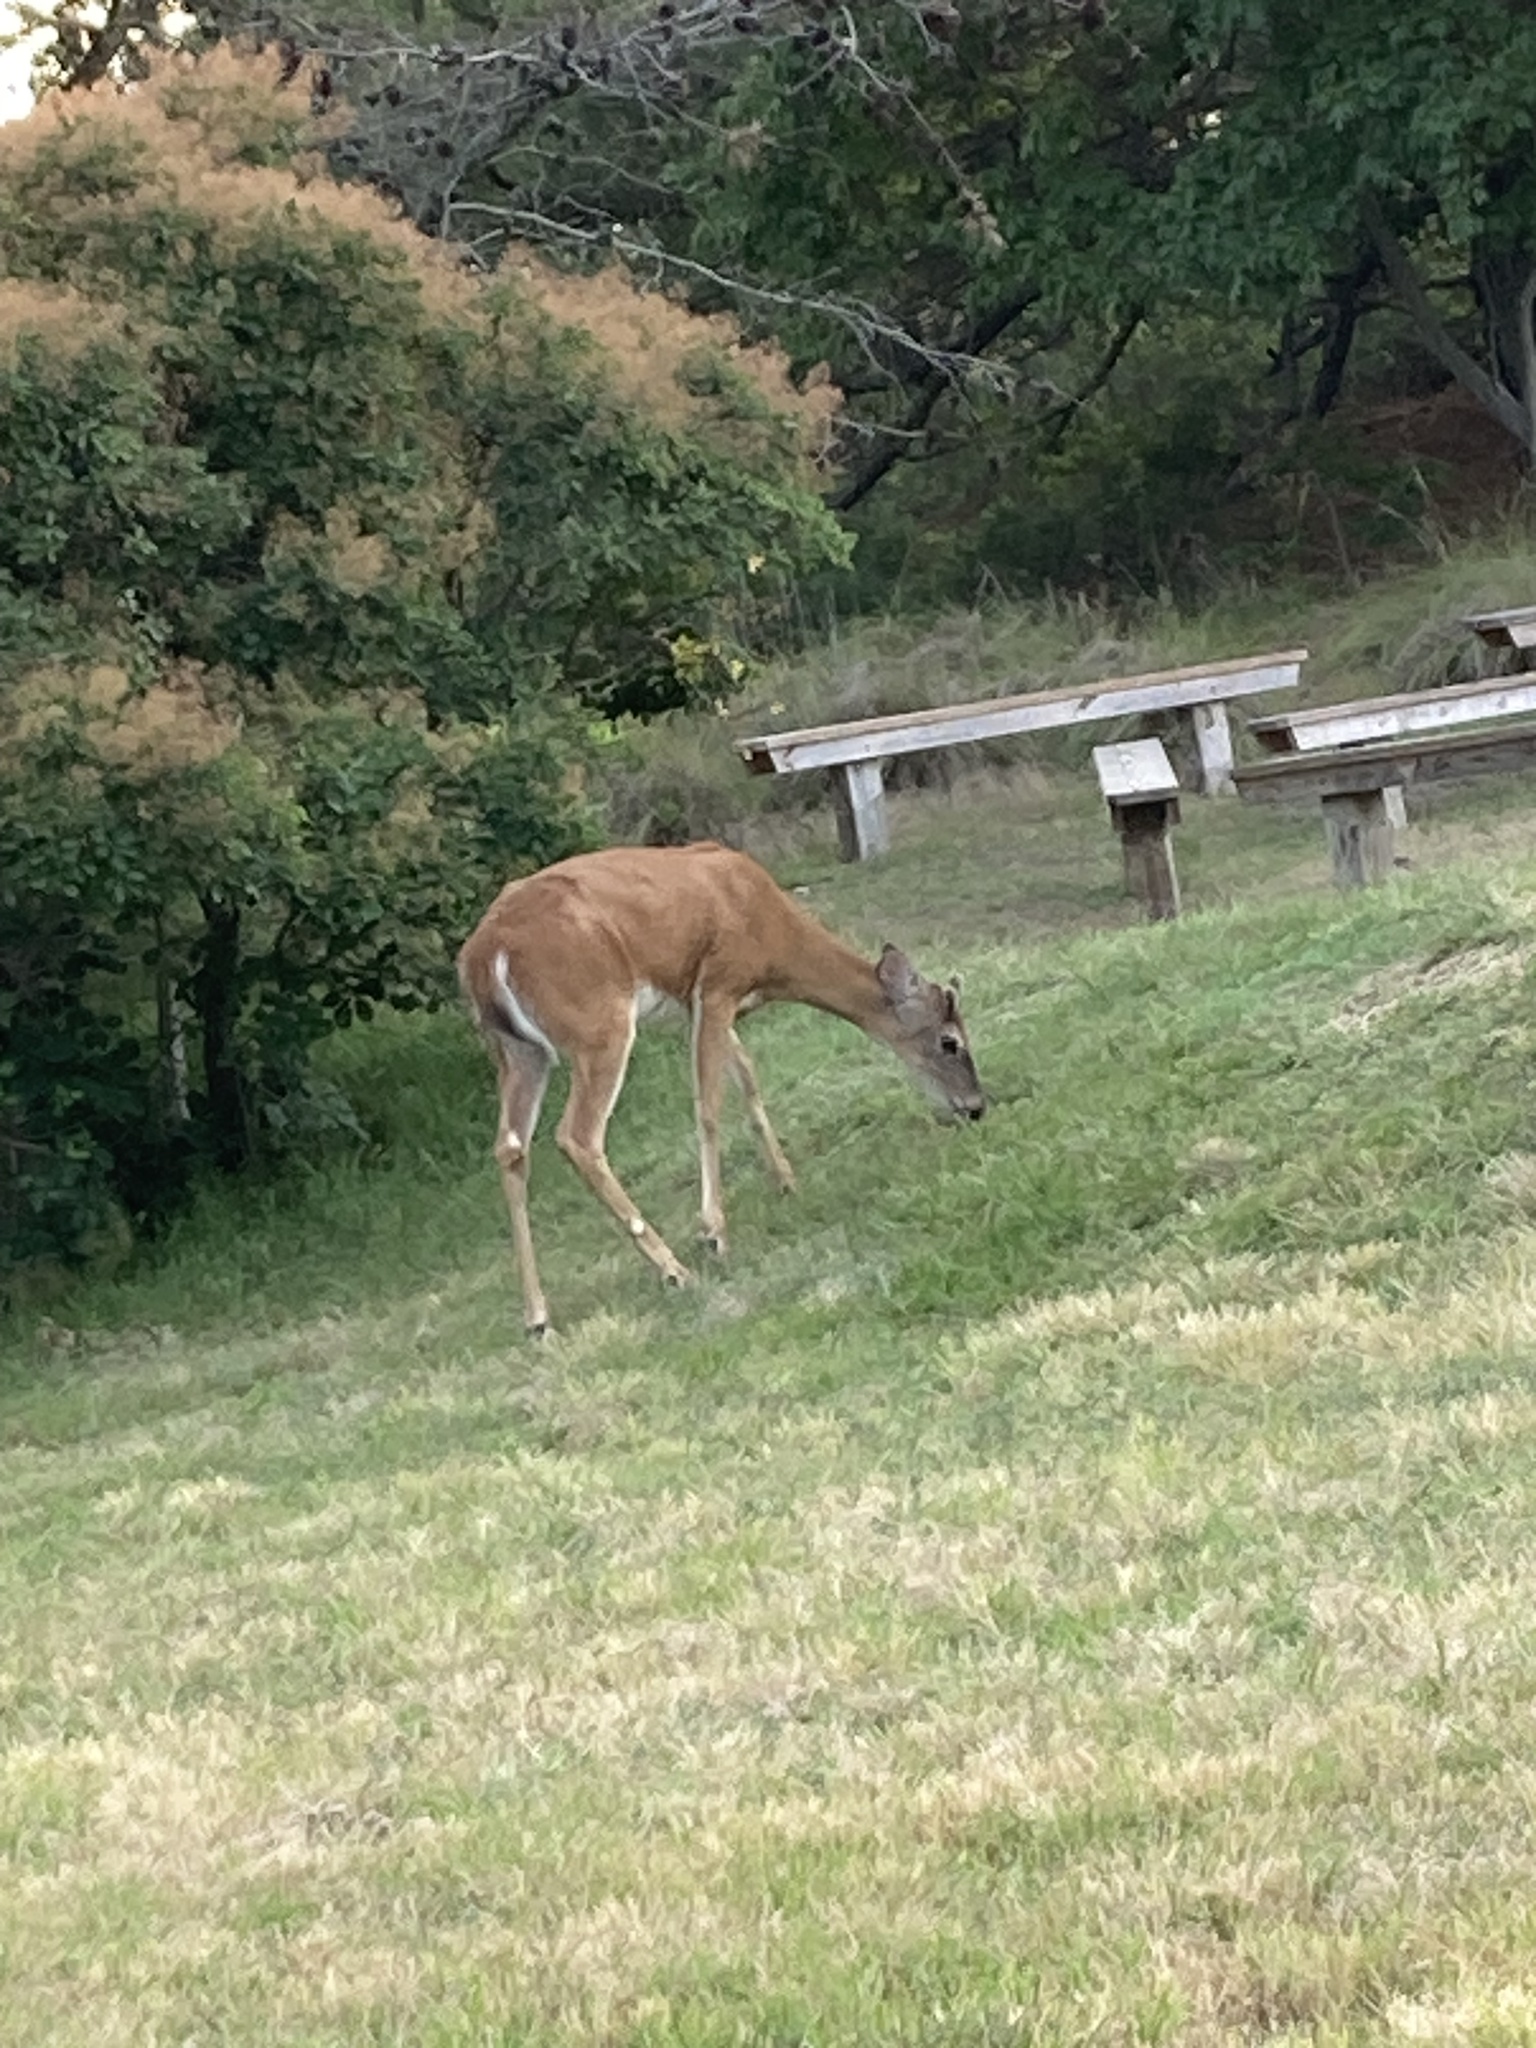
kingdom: Animalia
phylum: Chordata
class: Mammalia
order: Artiodactyla
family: Cervidae
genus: Odocoileus
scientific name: Odocoileus virginianus
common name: White-tailed deer
